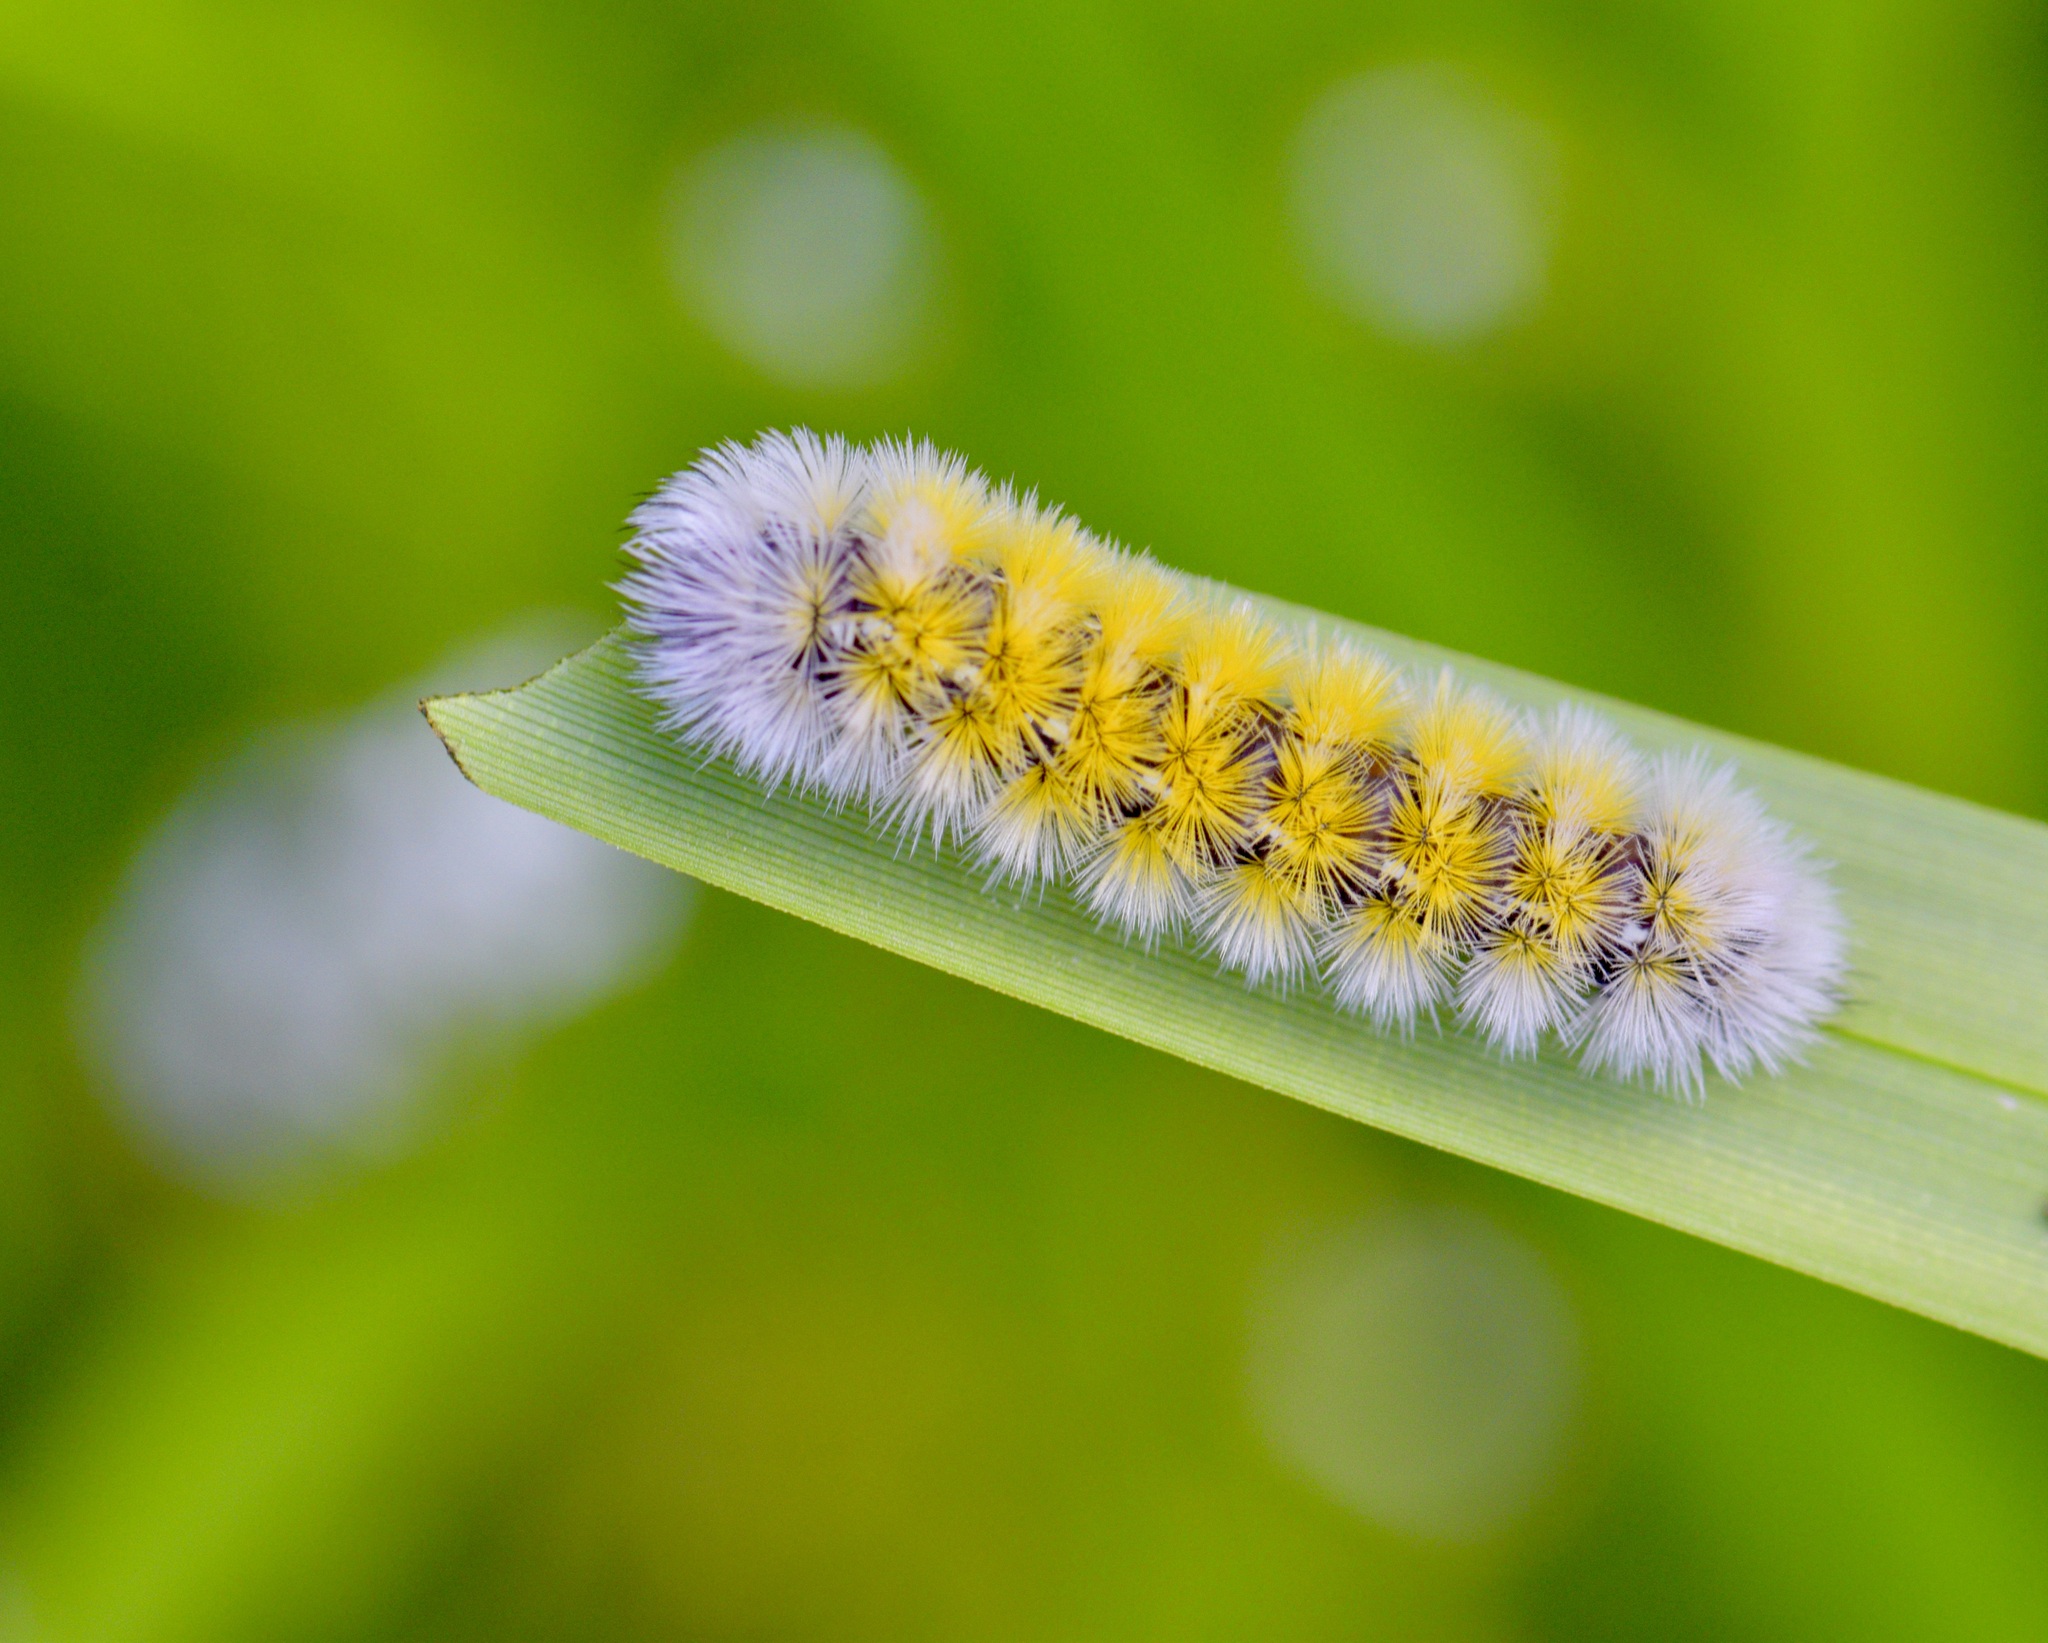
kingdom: Animalia
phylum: Arthropoda
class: Insecta
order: Lepidoptera
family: Erebidae
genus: Ctenucha
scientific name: Ctenucha virginica
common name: Virginia ctenucha moth
